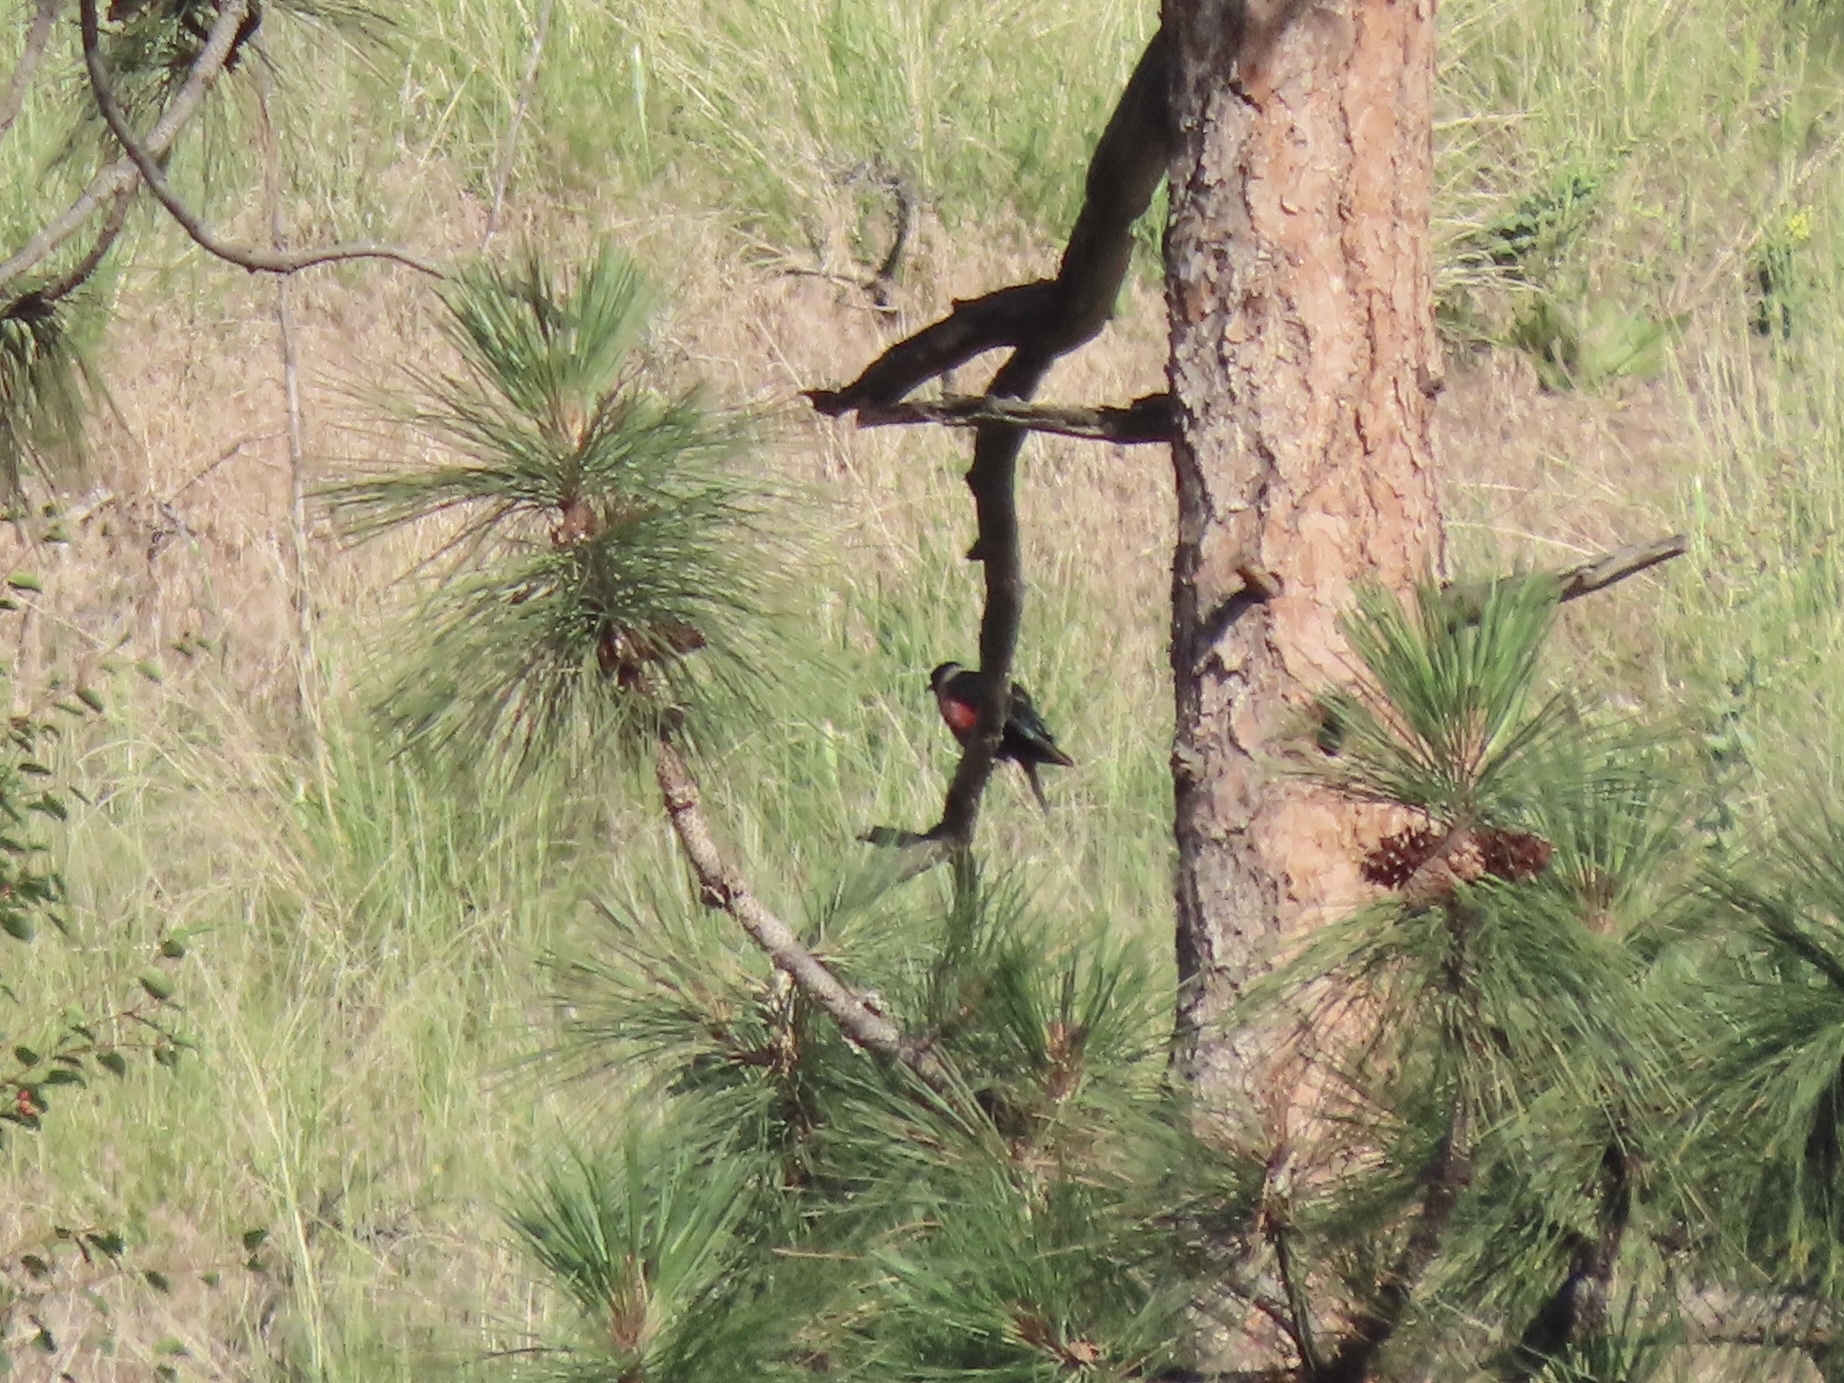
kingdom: Animalia
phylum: Chordata
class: Aves
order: Piciformes
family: Picidae
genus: Melanerpes
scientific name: Melanerpes lewis
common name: Lewis's woodpecker
